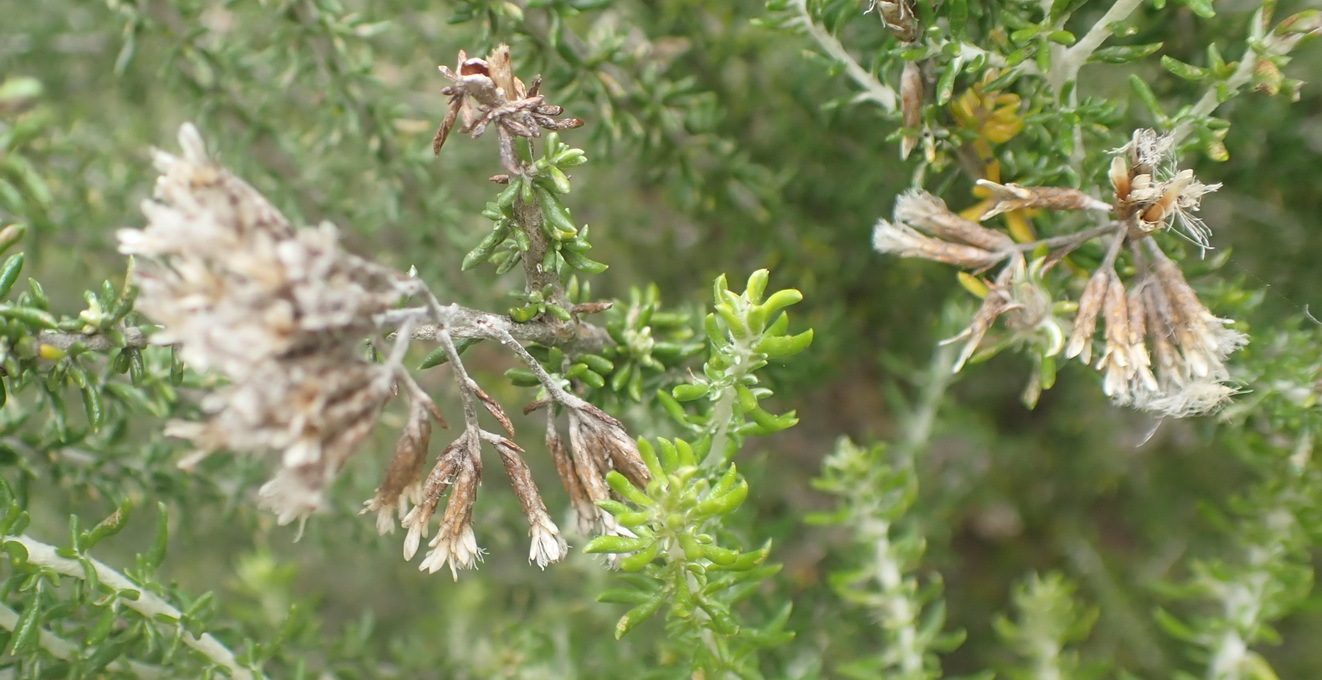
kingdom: Plantae
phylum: Tracheophyta
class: Magnoliopsida
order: Asterales
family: Asteraceae
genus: Metalasia
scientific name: Metalasia muricata
